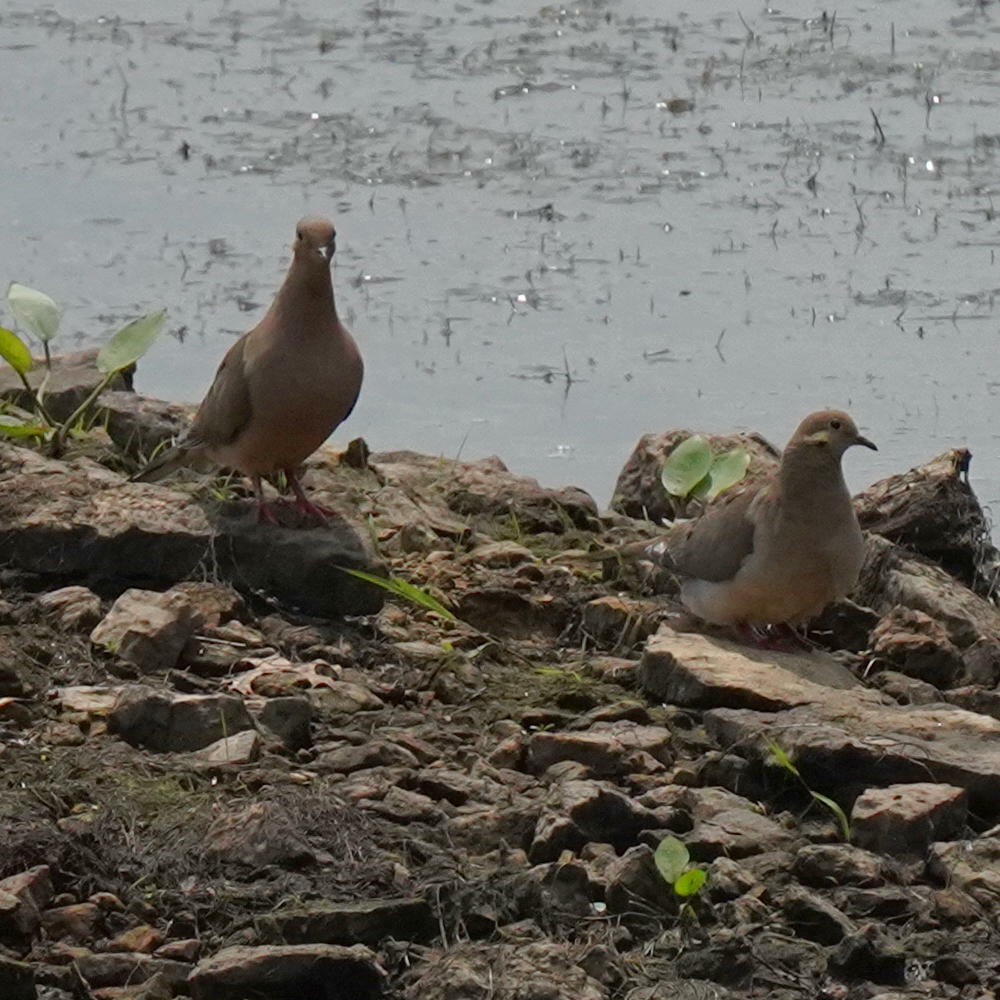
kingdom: Animalia
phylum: Chordata
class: Aves
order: Columbiformes
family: Columbidae
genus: Zenaida
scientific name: Zenaida macroura
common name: Mourning dove
